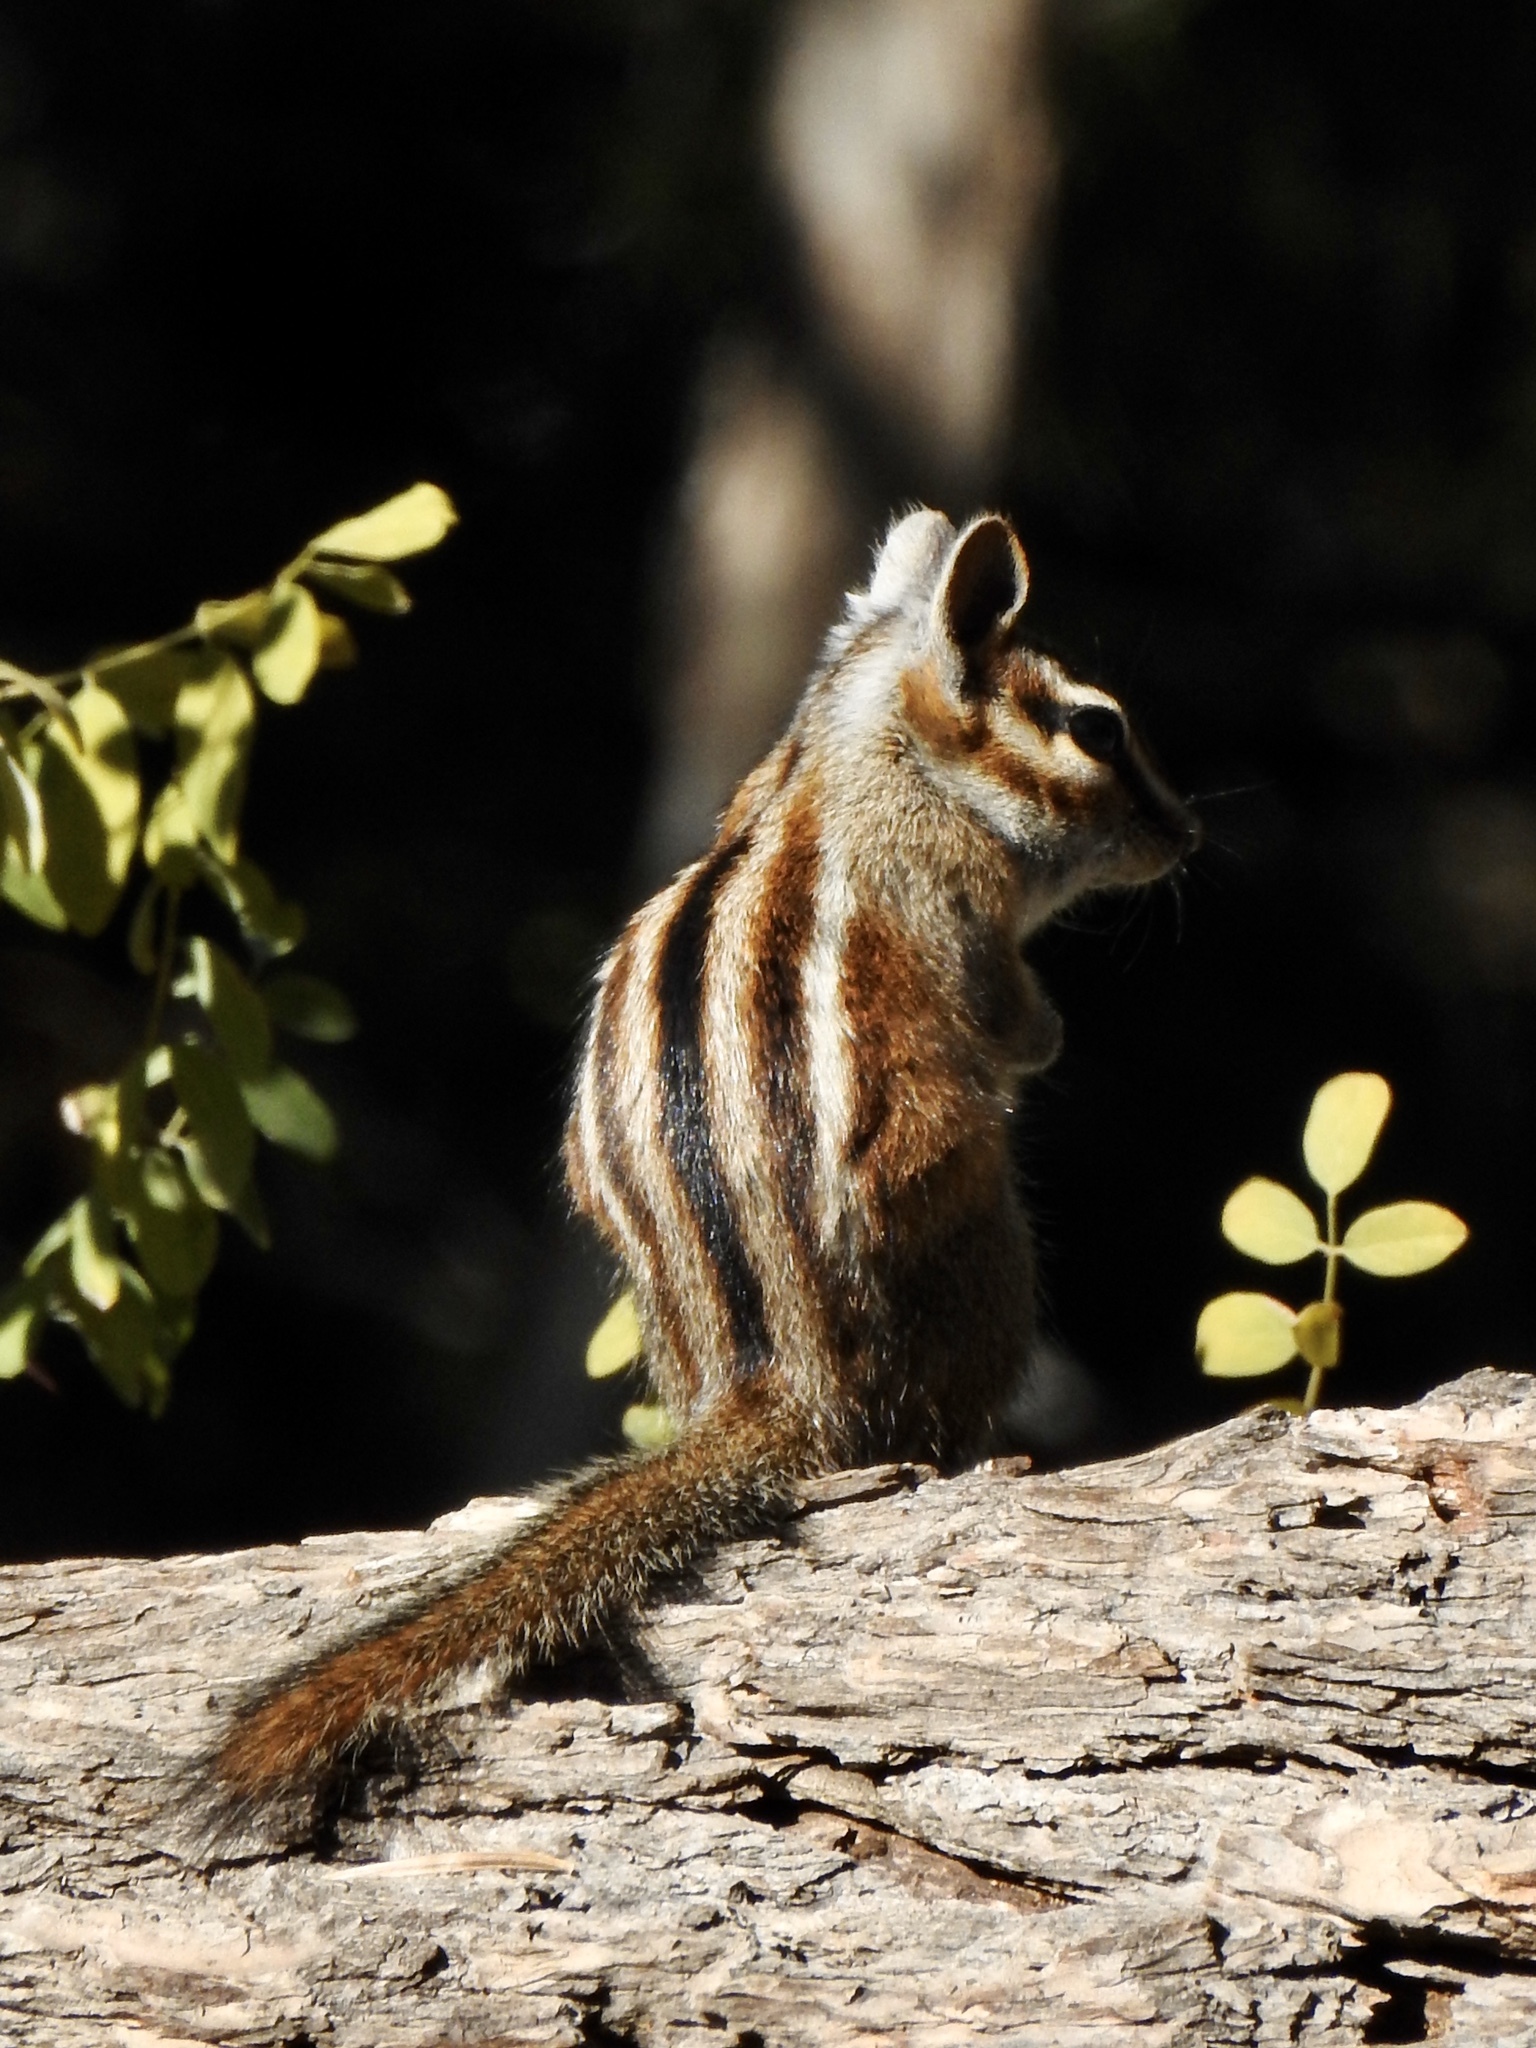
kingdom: Animalia
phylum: Chordata
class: Mammalia
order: Rodentia
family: Sciuridae
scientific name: Sciuridae
